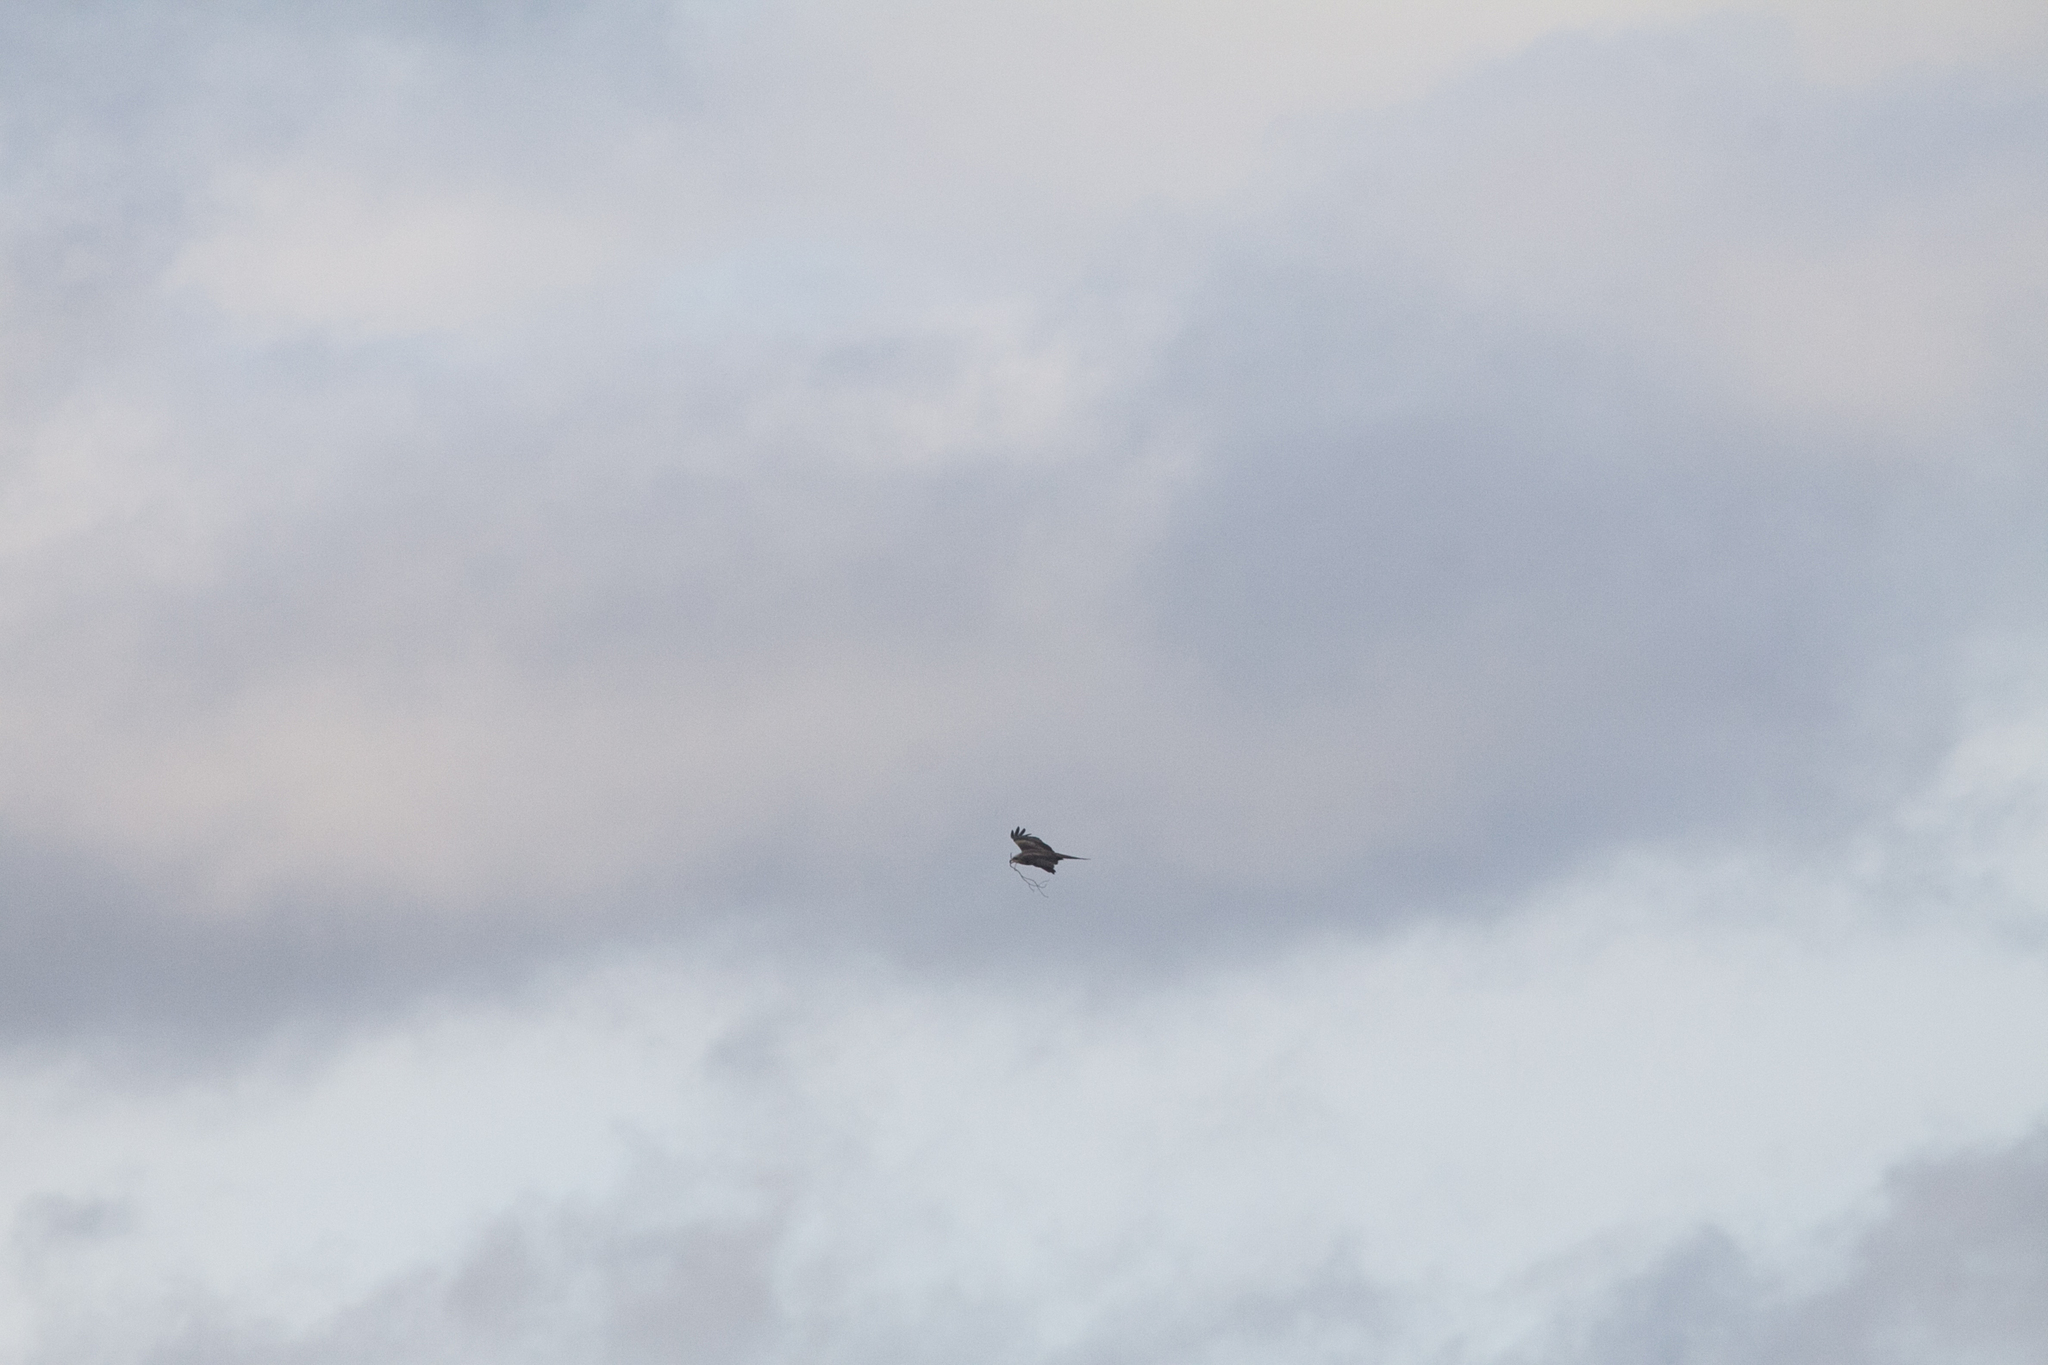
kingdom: Animalia
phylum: Chordata
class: Aves
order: Accipitriformes
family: Accipitridae
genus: Milvus
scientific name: Milvus migrans
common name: Black kite
